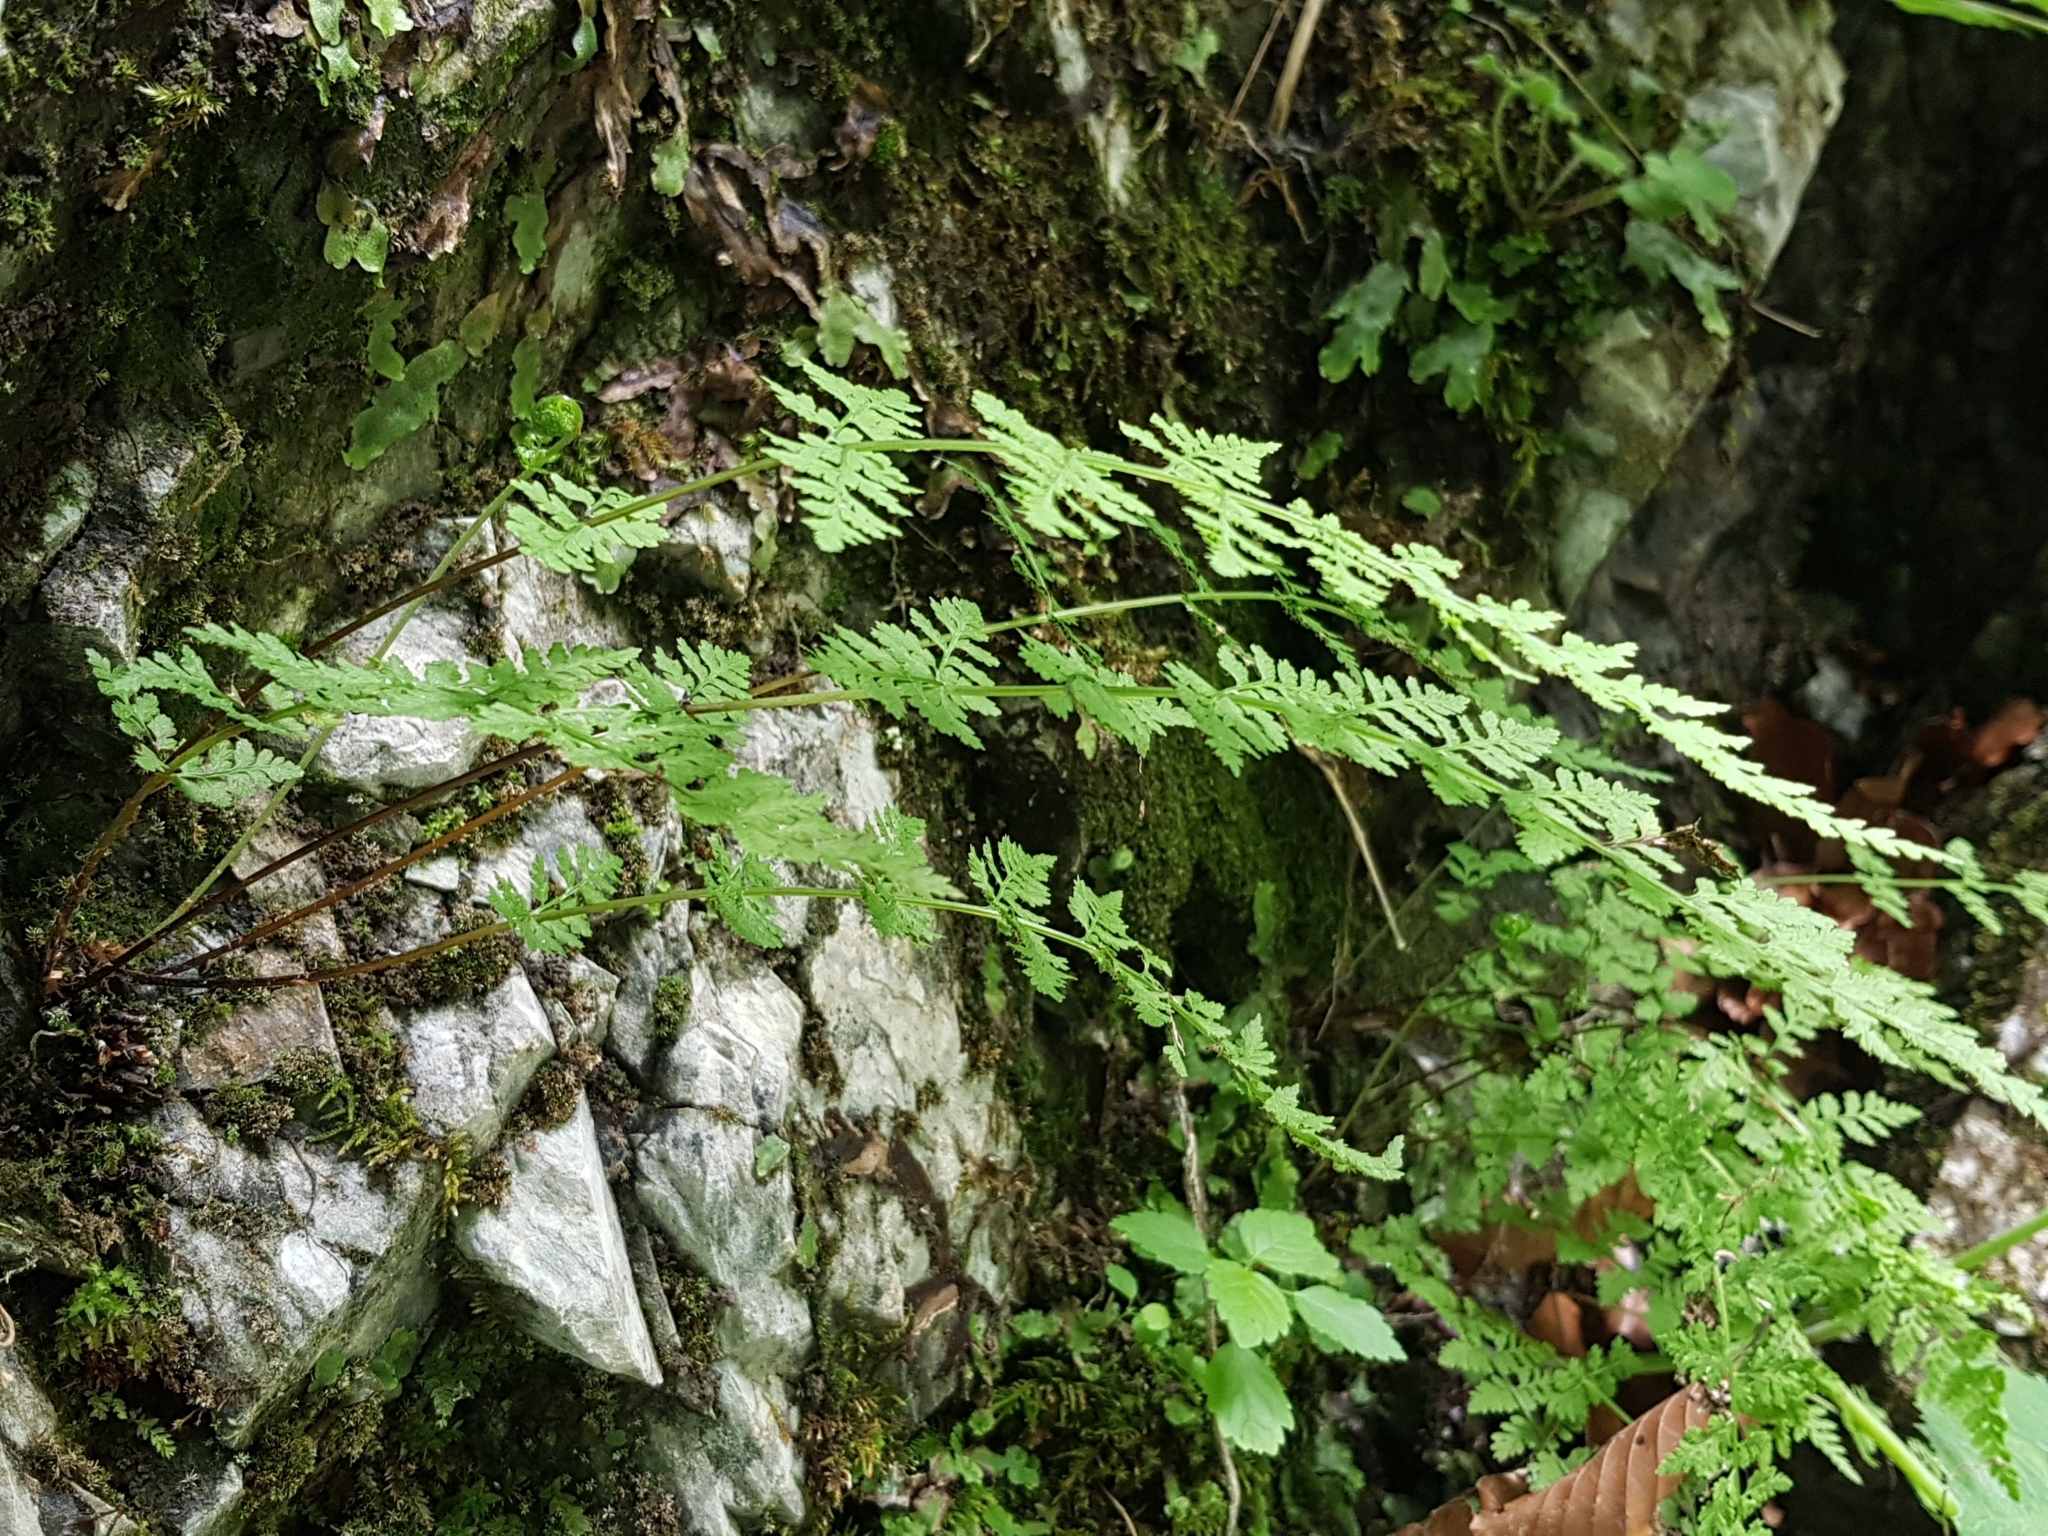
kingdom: Plantae
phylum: Tracheophyta
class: Polypodiopsida
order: Polypodiales
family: Cystopteridaceae
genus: Cystopteris
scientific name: Cystopteris fragilis
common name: Brittle bladder fern
